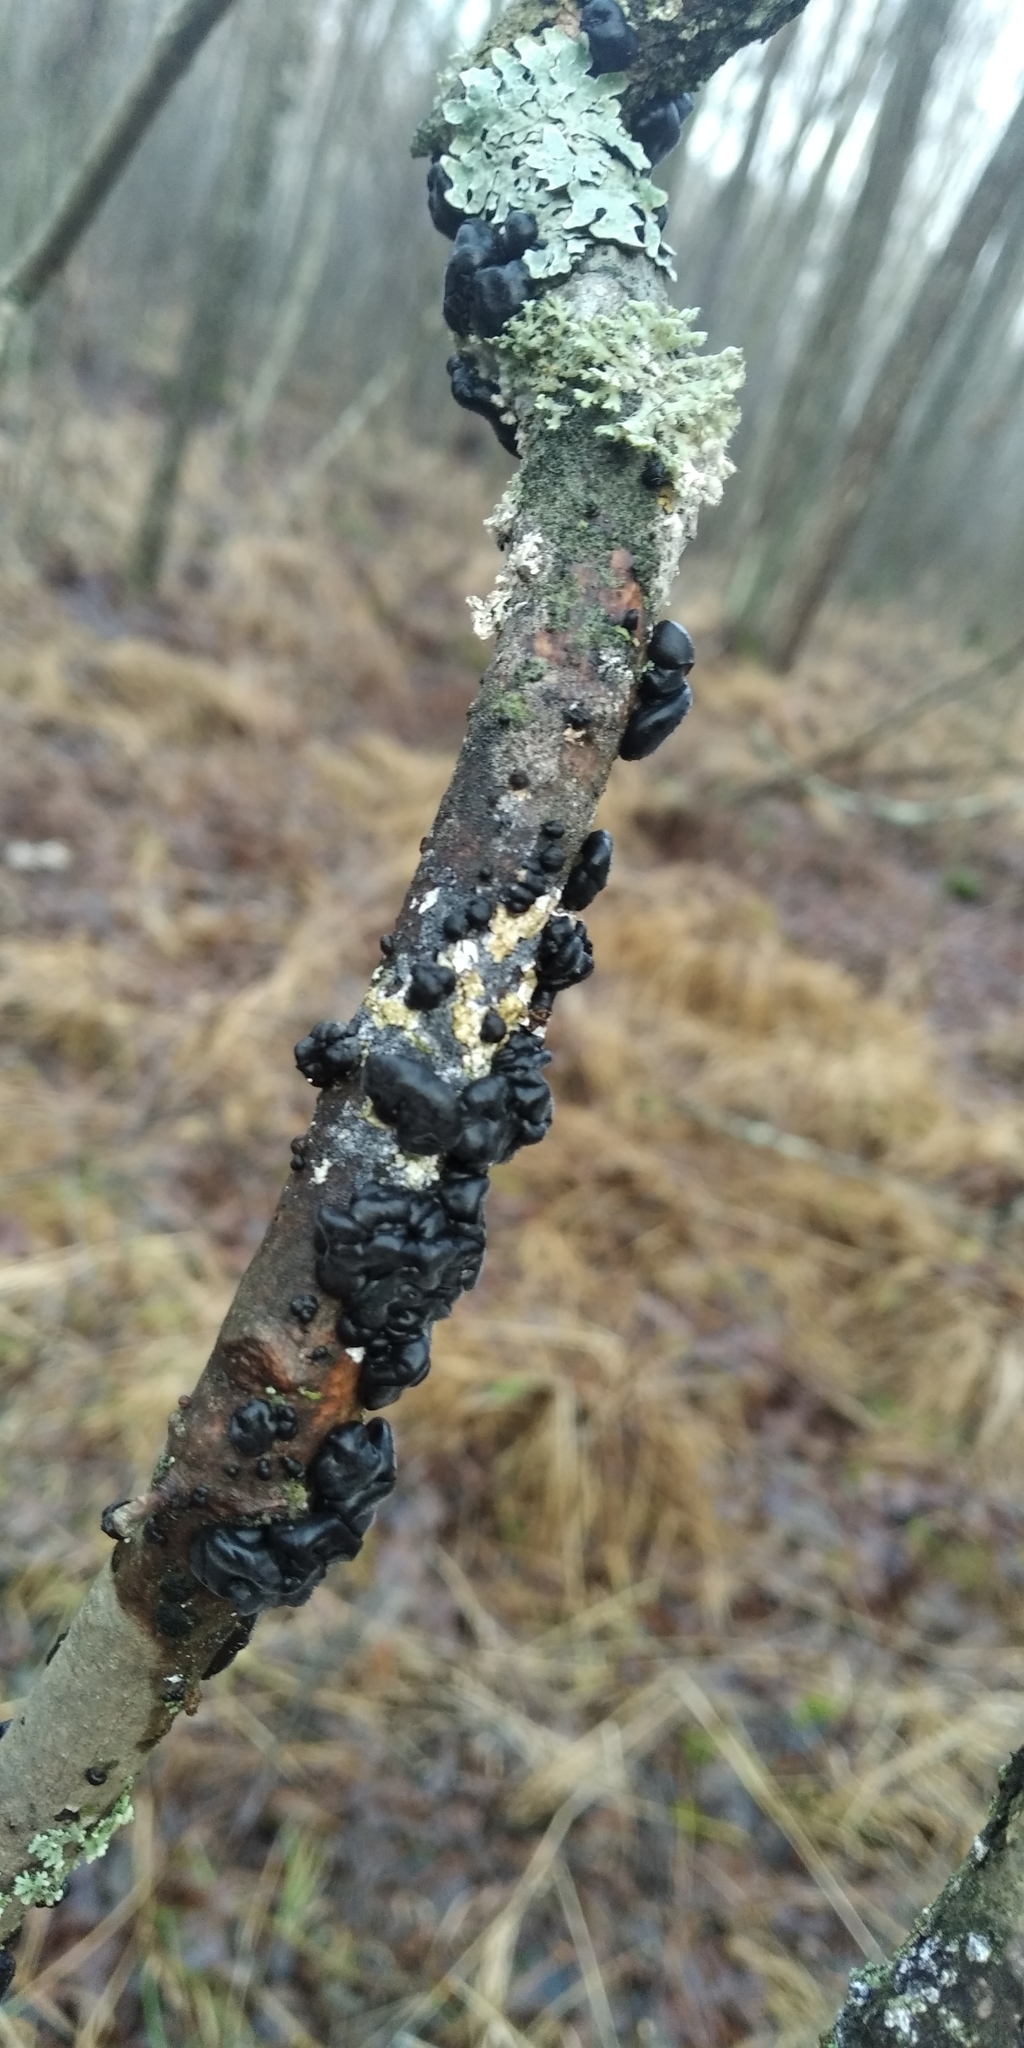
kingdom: Fungi
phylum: Basidiomycota
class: Agaricomycetes
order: Auriculariales
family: Auriculariaceae
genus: Exidia
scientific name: Exidia glandulosa
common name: Witches' butter
